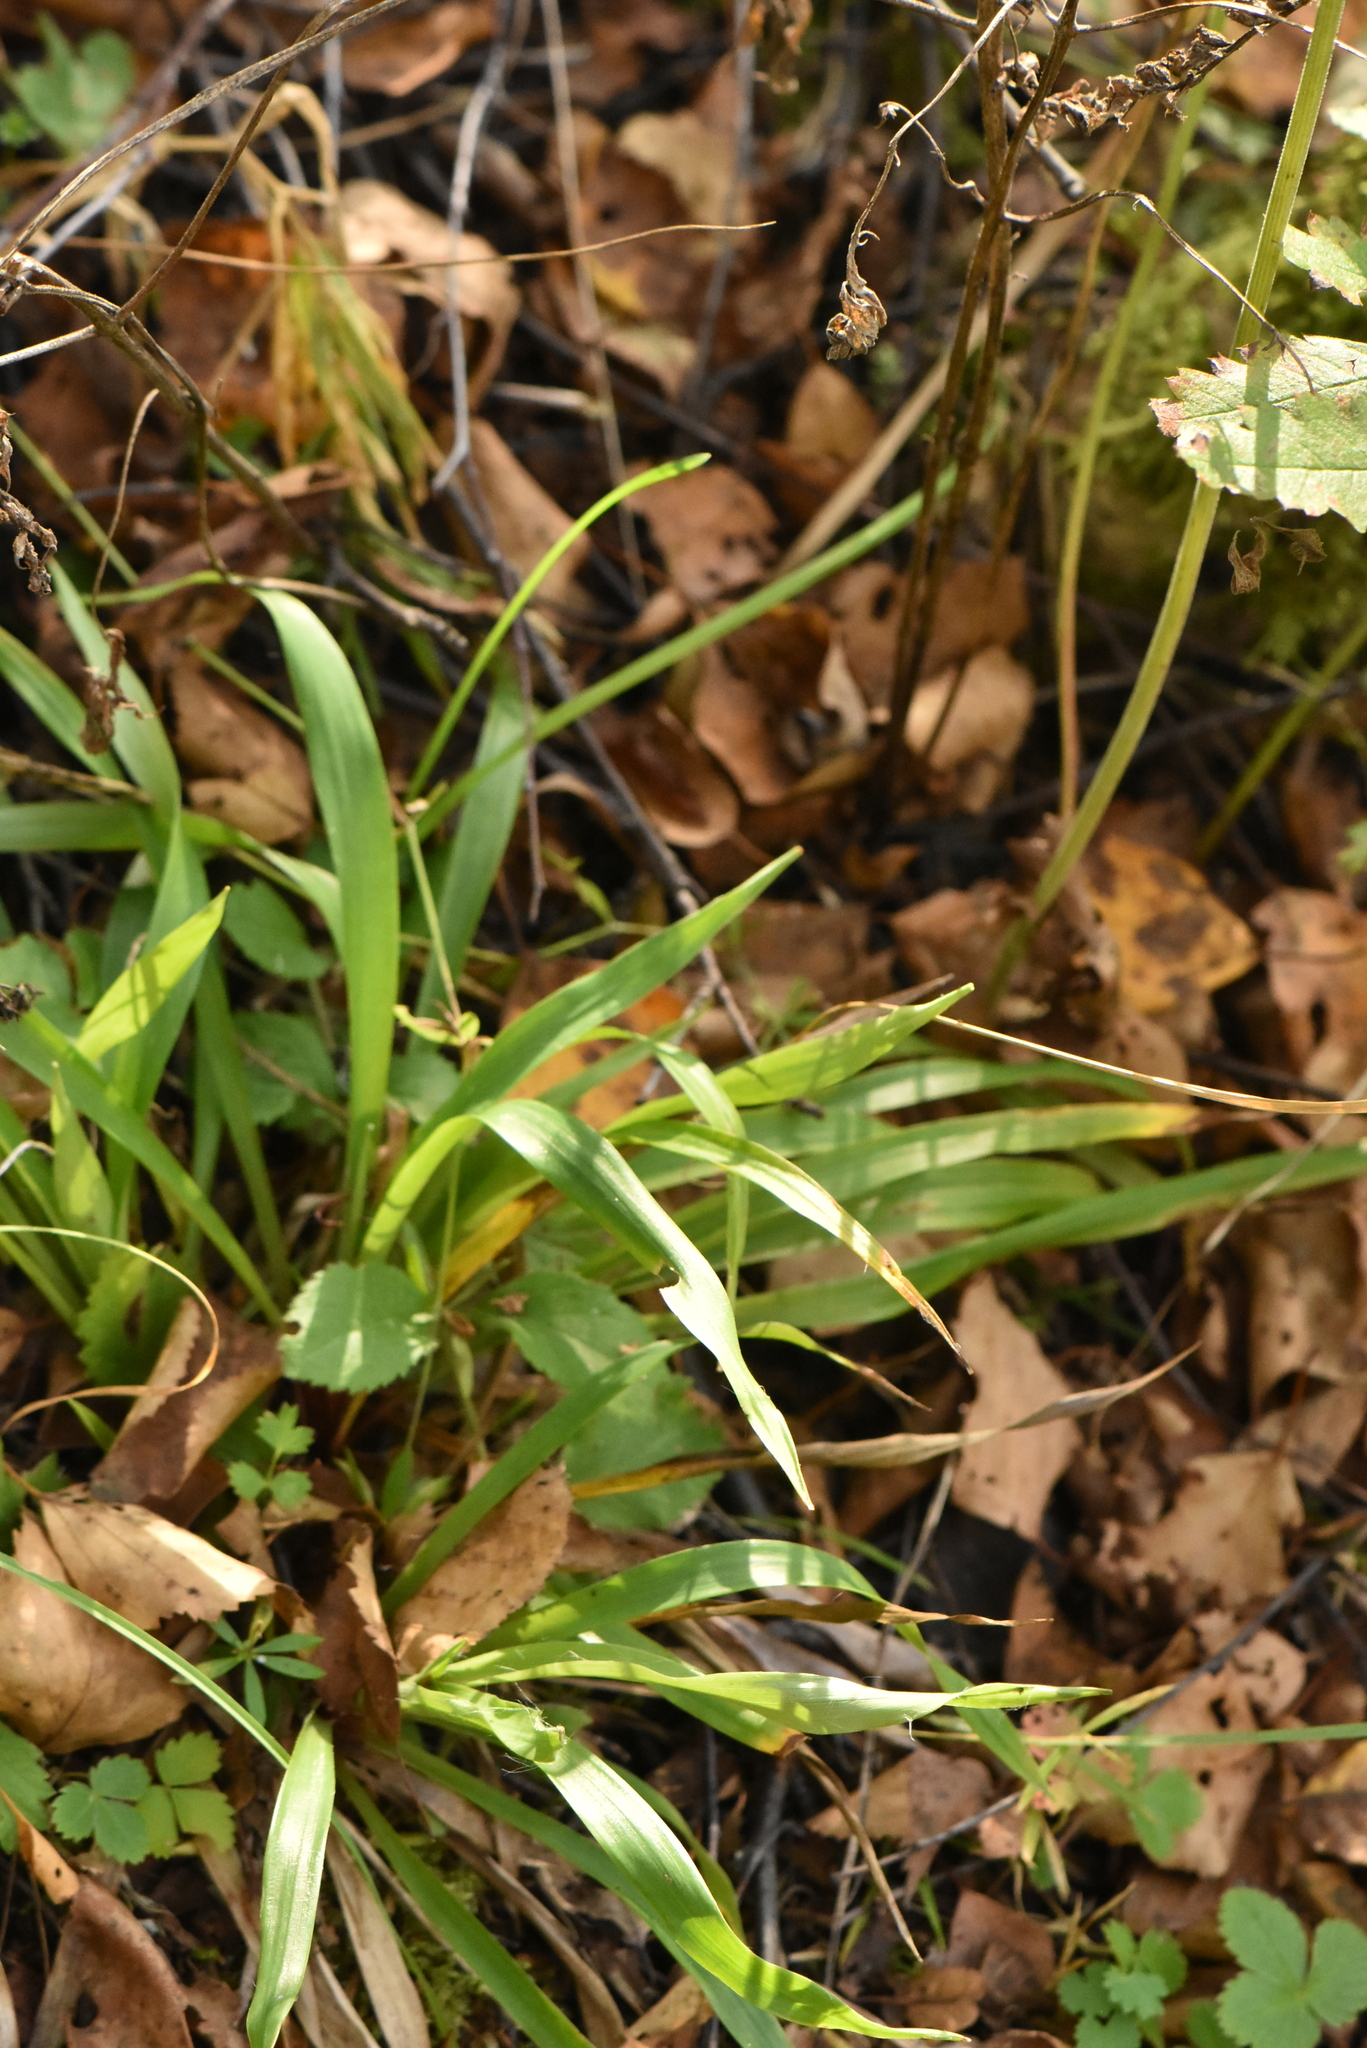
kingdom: Plantae
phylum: Tracheophyta
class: Liliopsida
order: Poales
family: Juncaceae
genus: Luzula
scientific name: Luzula pilosa
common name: Hairy wood-rush
